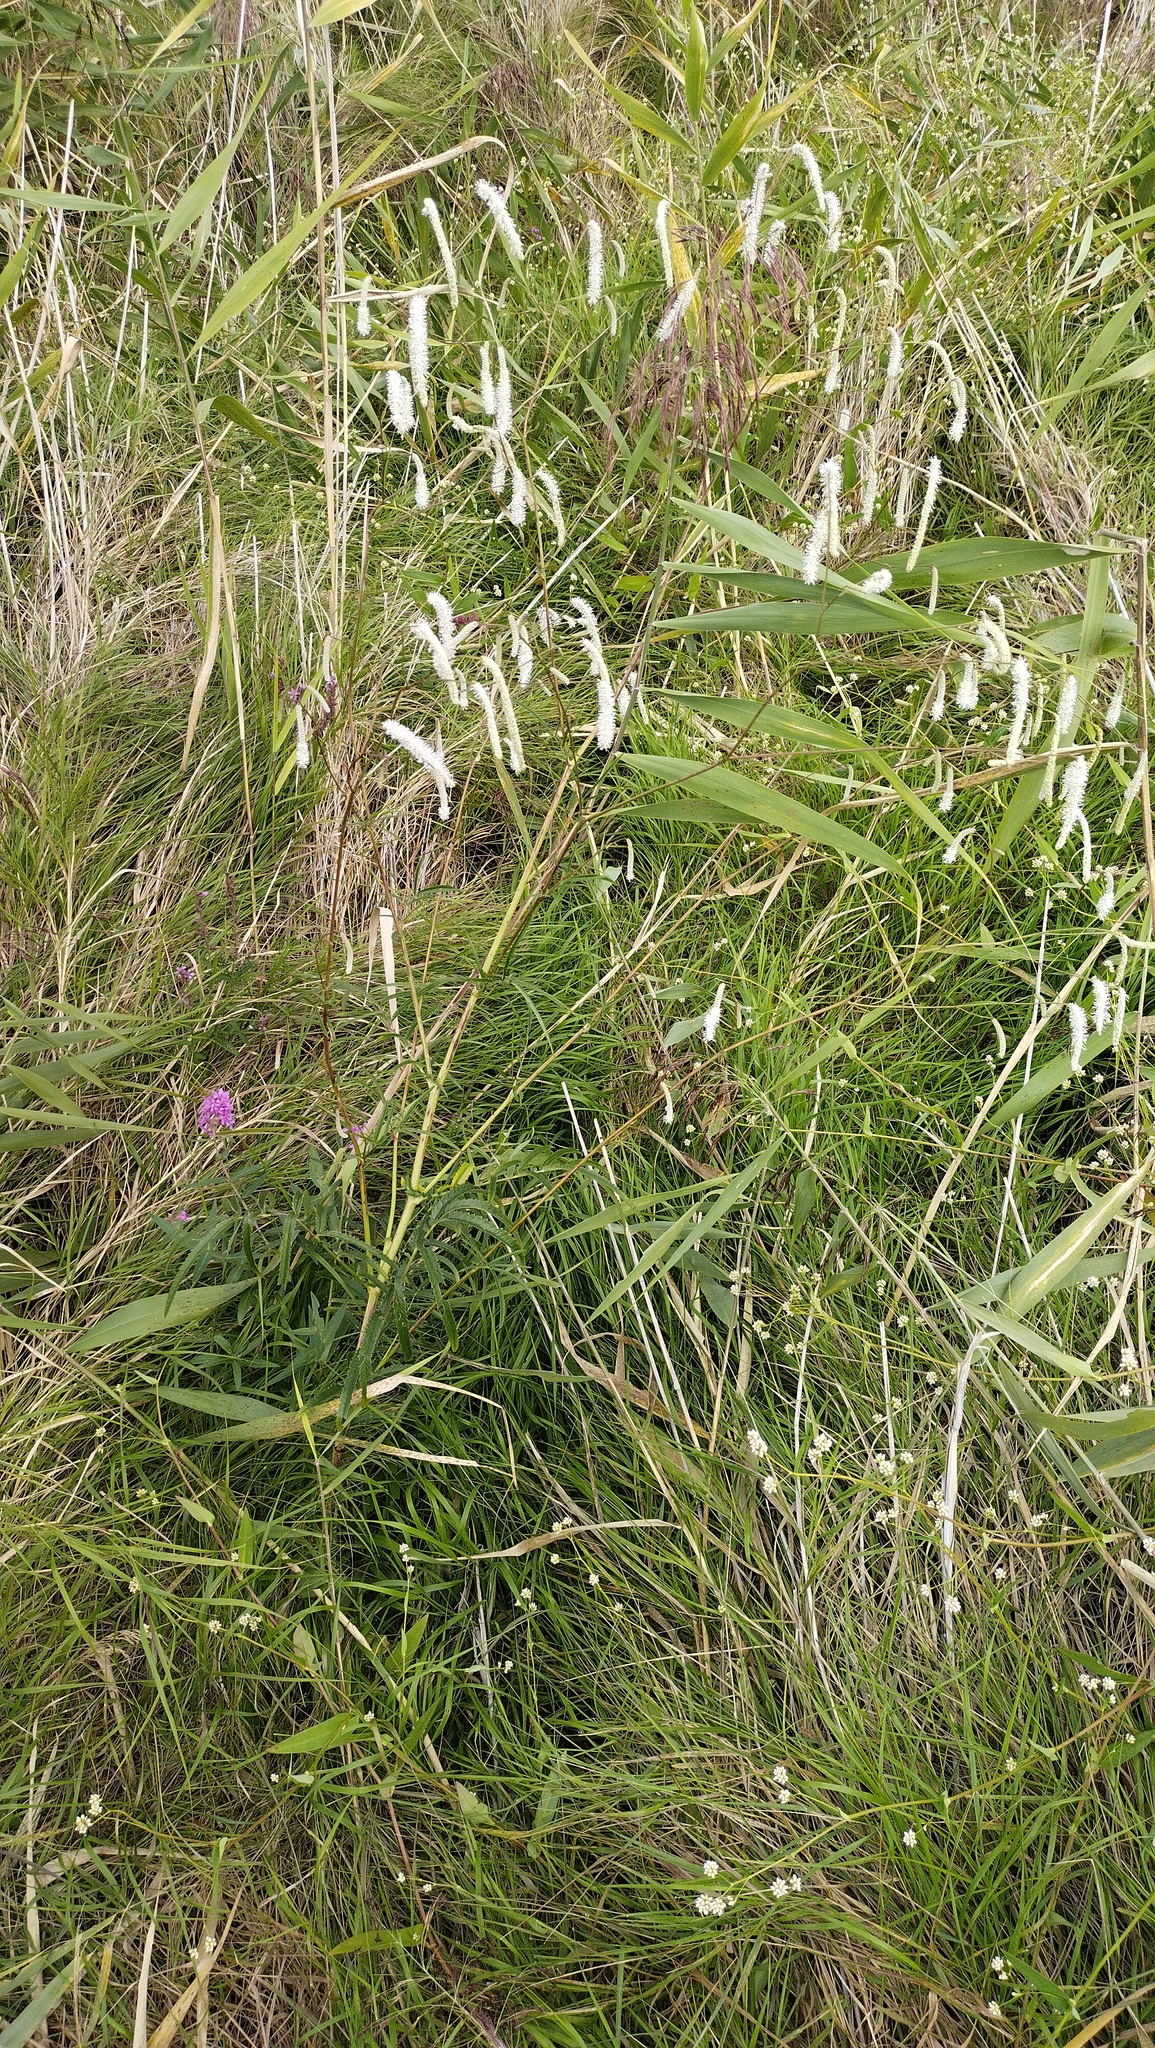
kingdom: Plantae
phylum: Tracheophyta
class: Magnoliopsida
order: Rosales
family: Rosaceae
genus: Poterium
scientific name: Poterium tenuifolium
